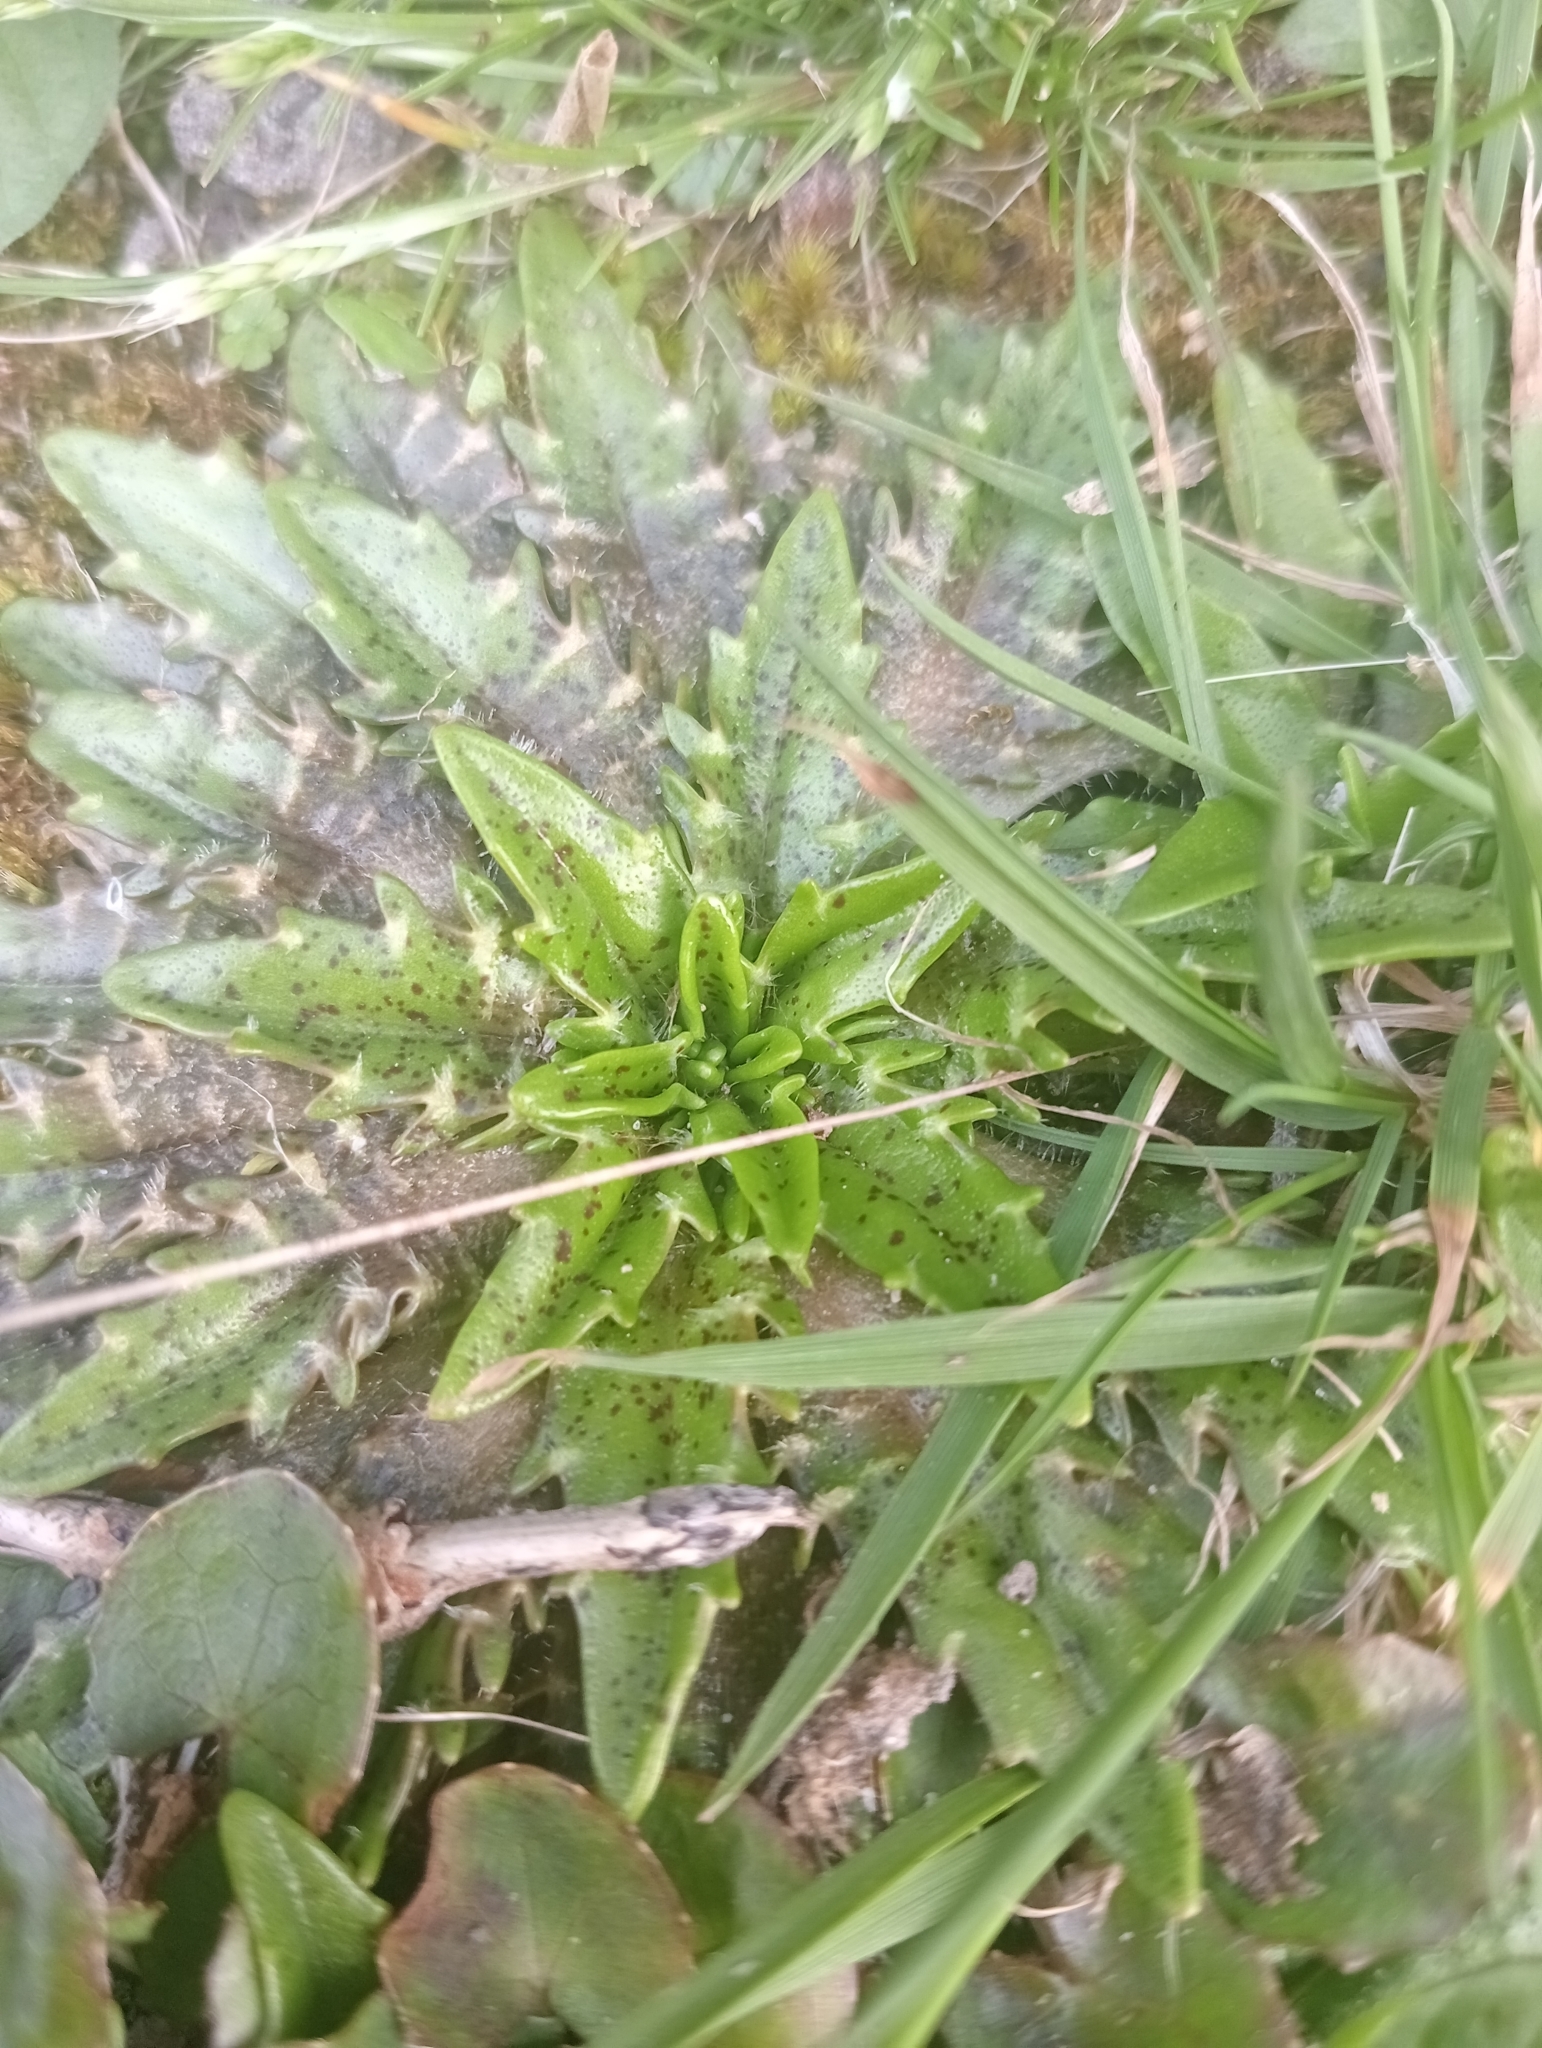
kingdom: Plantae
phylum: Tracheophyta
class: Magnoliopsida
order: Lamiales
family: Plantaginaceae
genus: Plantago
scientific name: Plantago triandra
